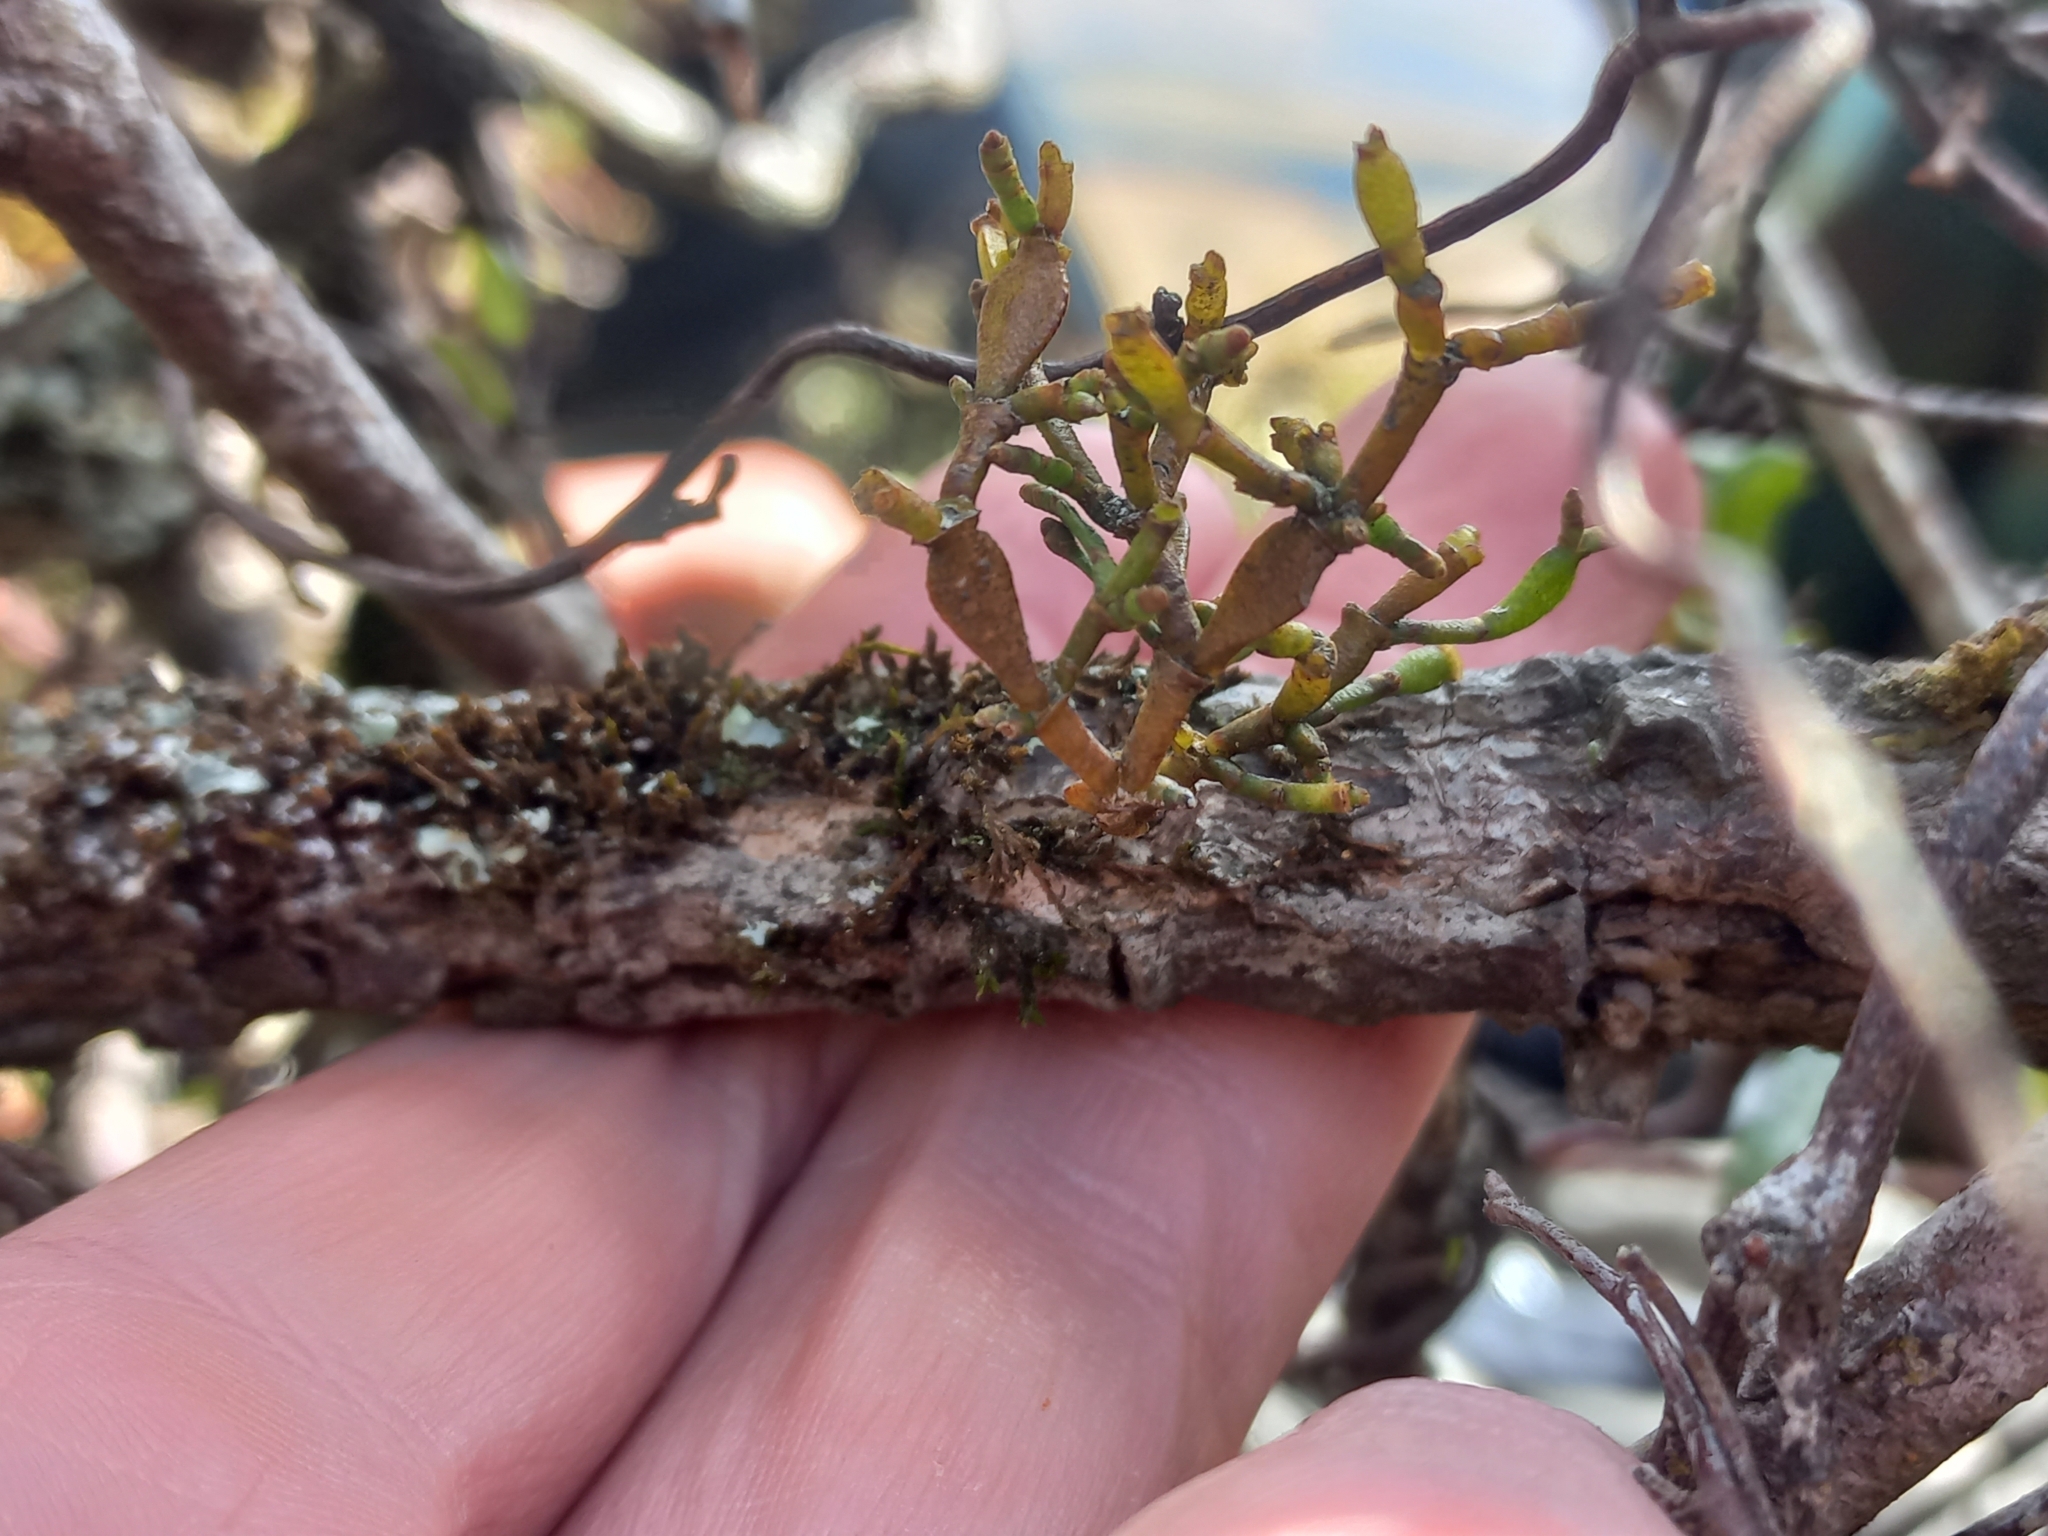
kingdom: Plantae
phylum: Tracheophyta
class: Magnoliopsida
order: Santalales
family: Viscaceae
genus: Korthalsella
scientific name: Korthalsella clavata
